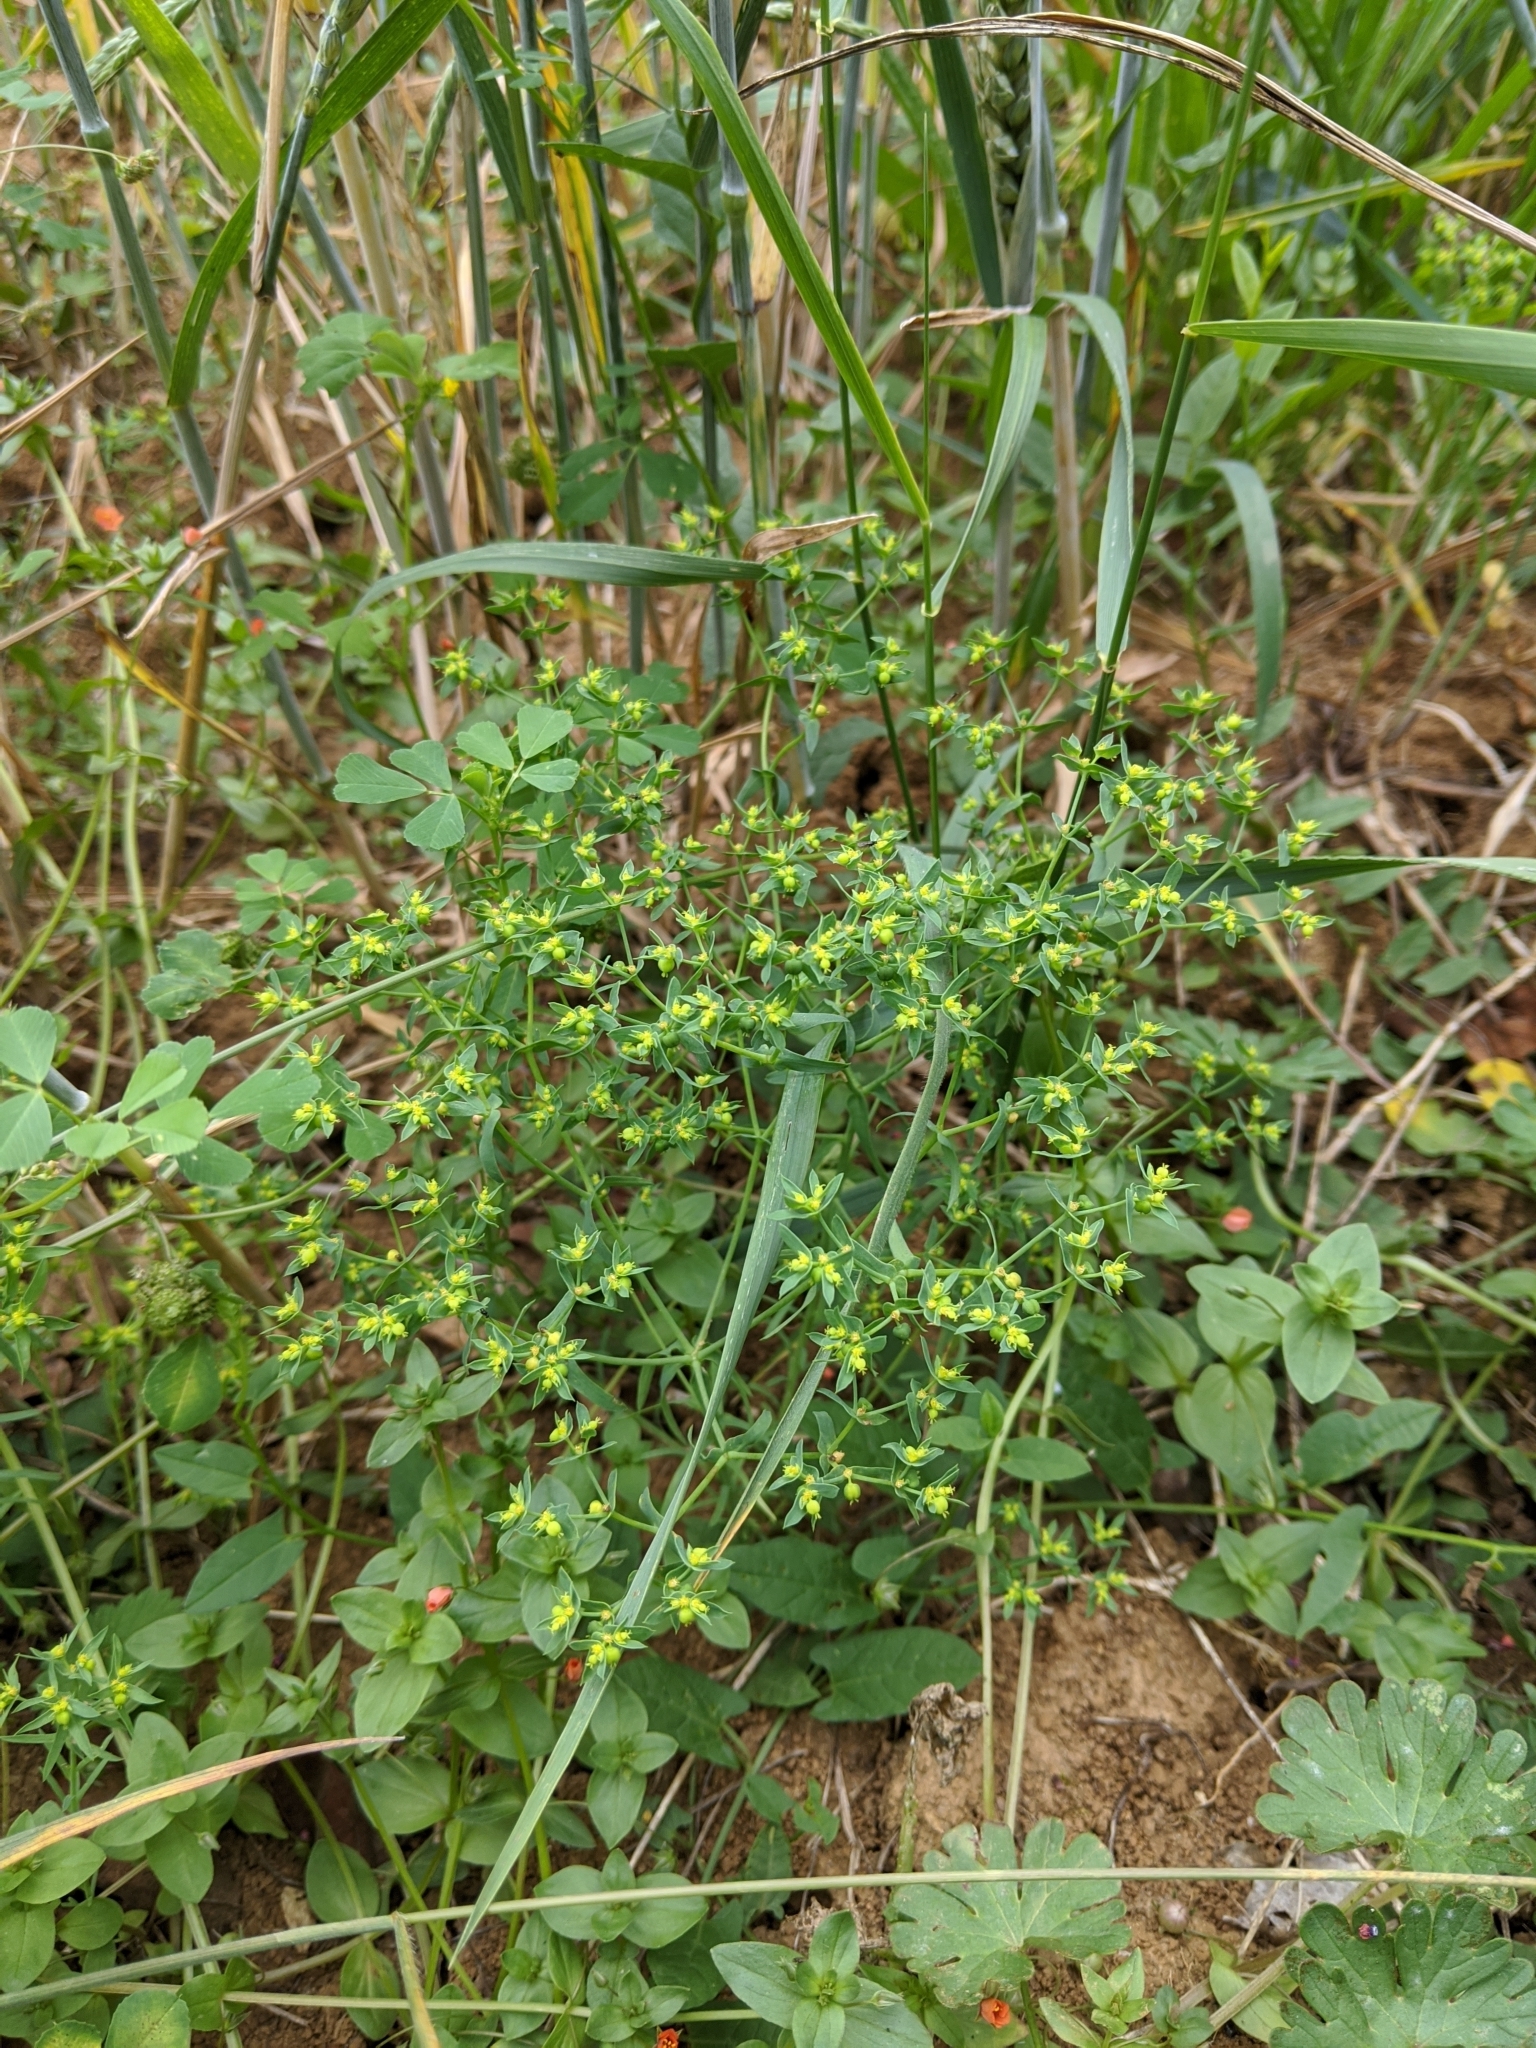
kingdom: Plantae
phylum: Tracheophyta
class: Magnoliopsida
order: Malpighiales
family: Euphorbiaceae
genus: Euphorbia
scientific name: Euphorbia exigua
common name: Dwarf spurge
